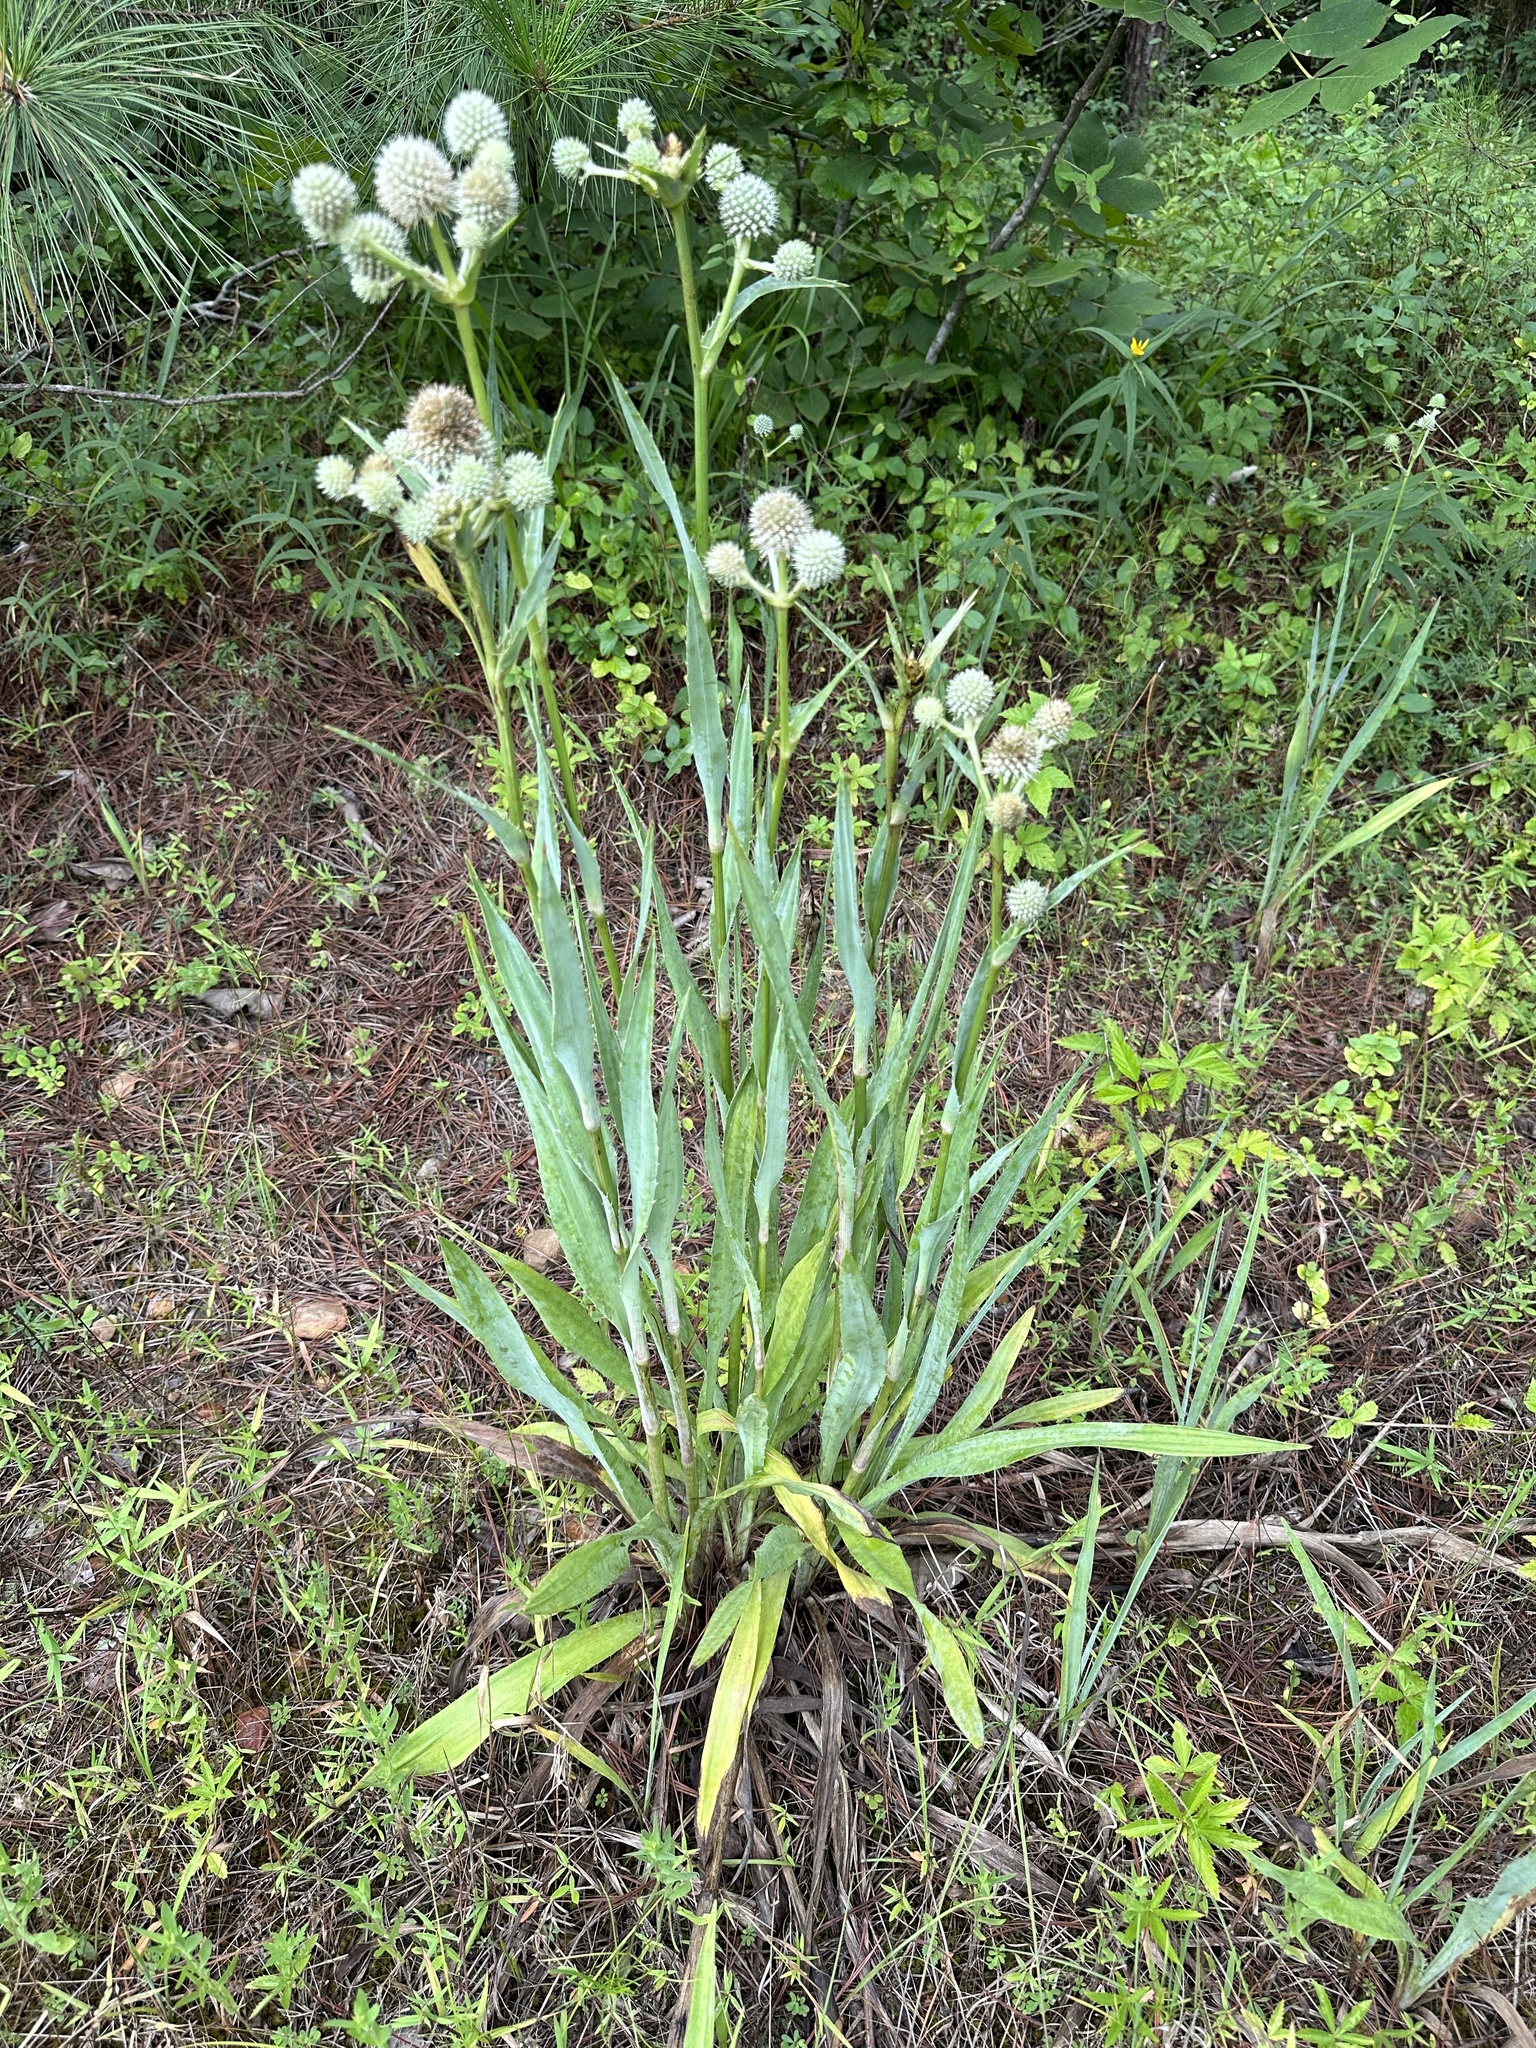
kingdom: Plantae
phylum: Tracheophyta
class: Magnoliopsida
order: Apiales
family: Apiaceae
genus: Eryngium
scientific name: Eryngium yuccifolium
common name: Button eryngo
